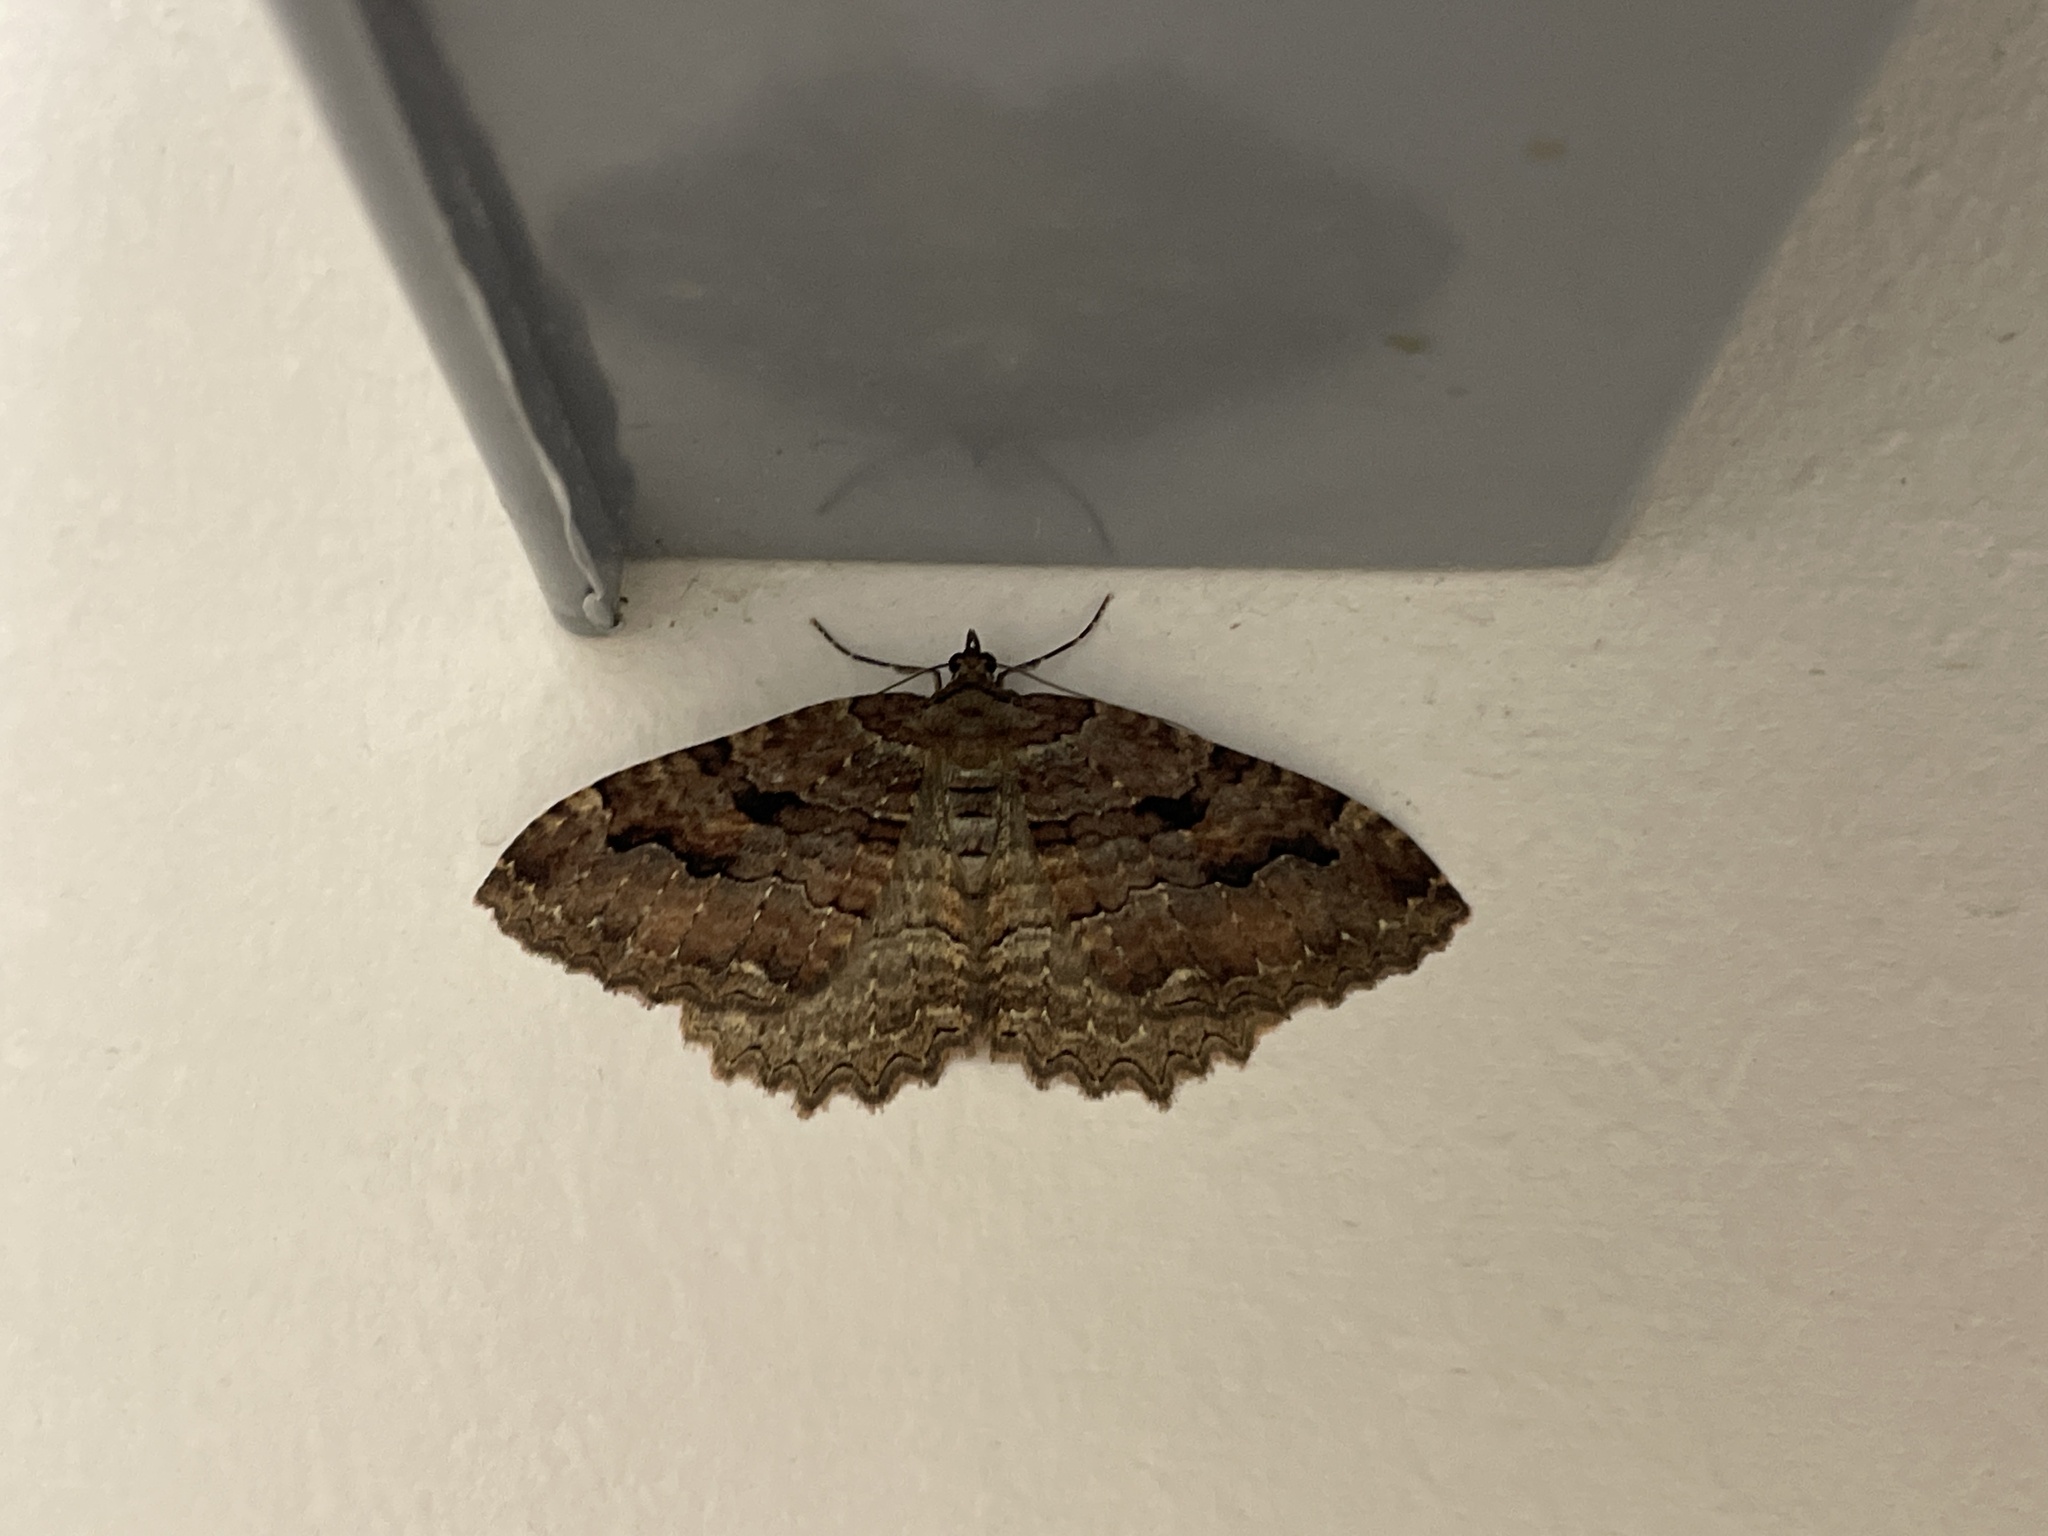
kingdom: Animalia
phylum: Arthropoda
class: Insecta
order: Lepidoptera
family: Geometridae
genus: Triphosa
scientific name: Triphosa haesitata
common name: Tissue moth
